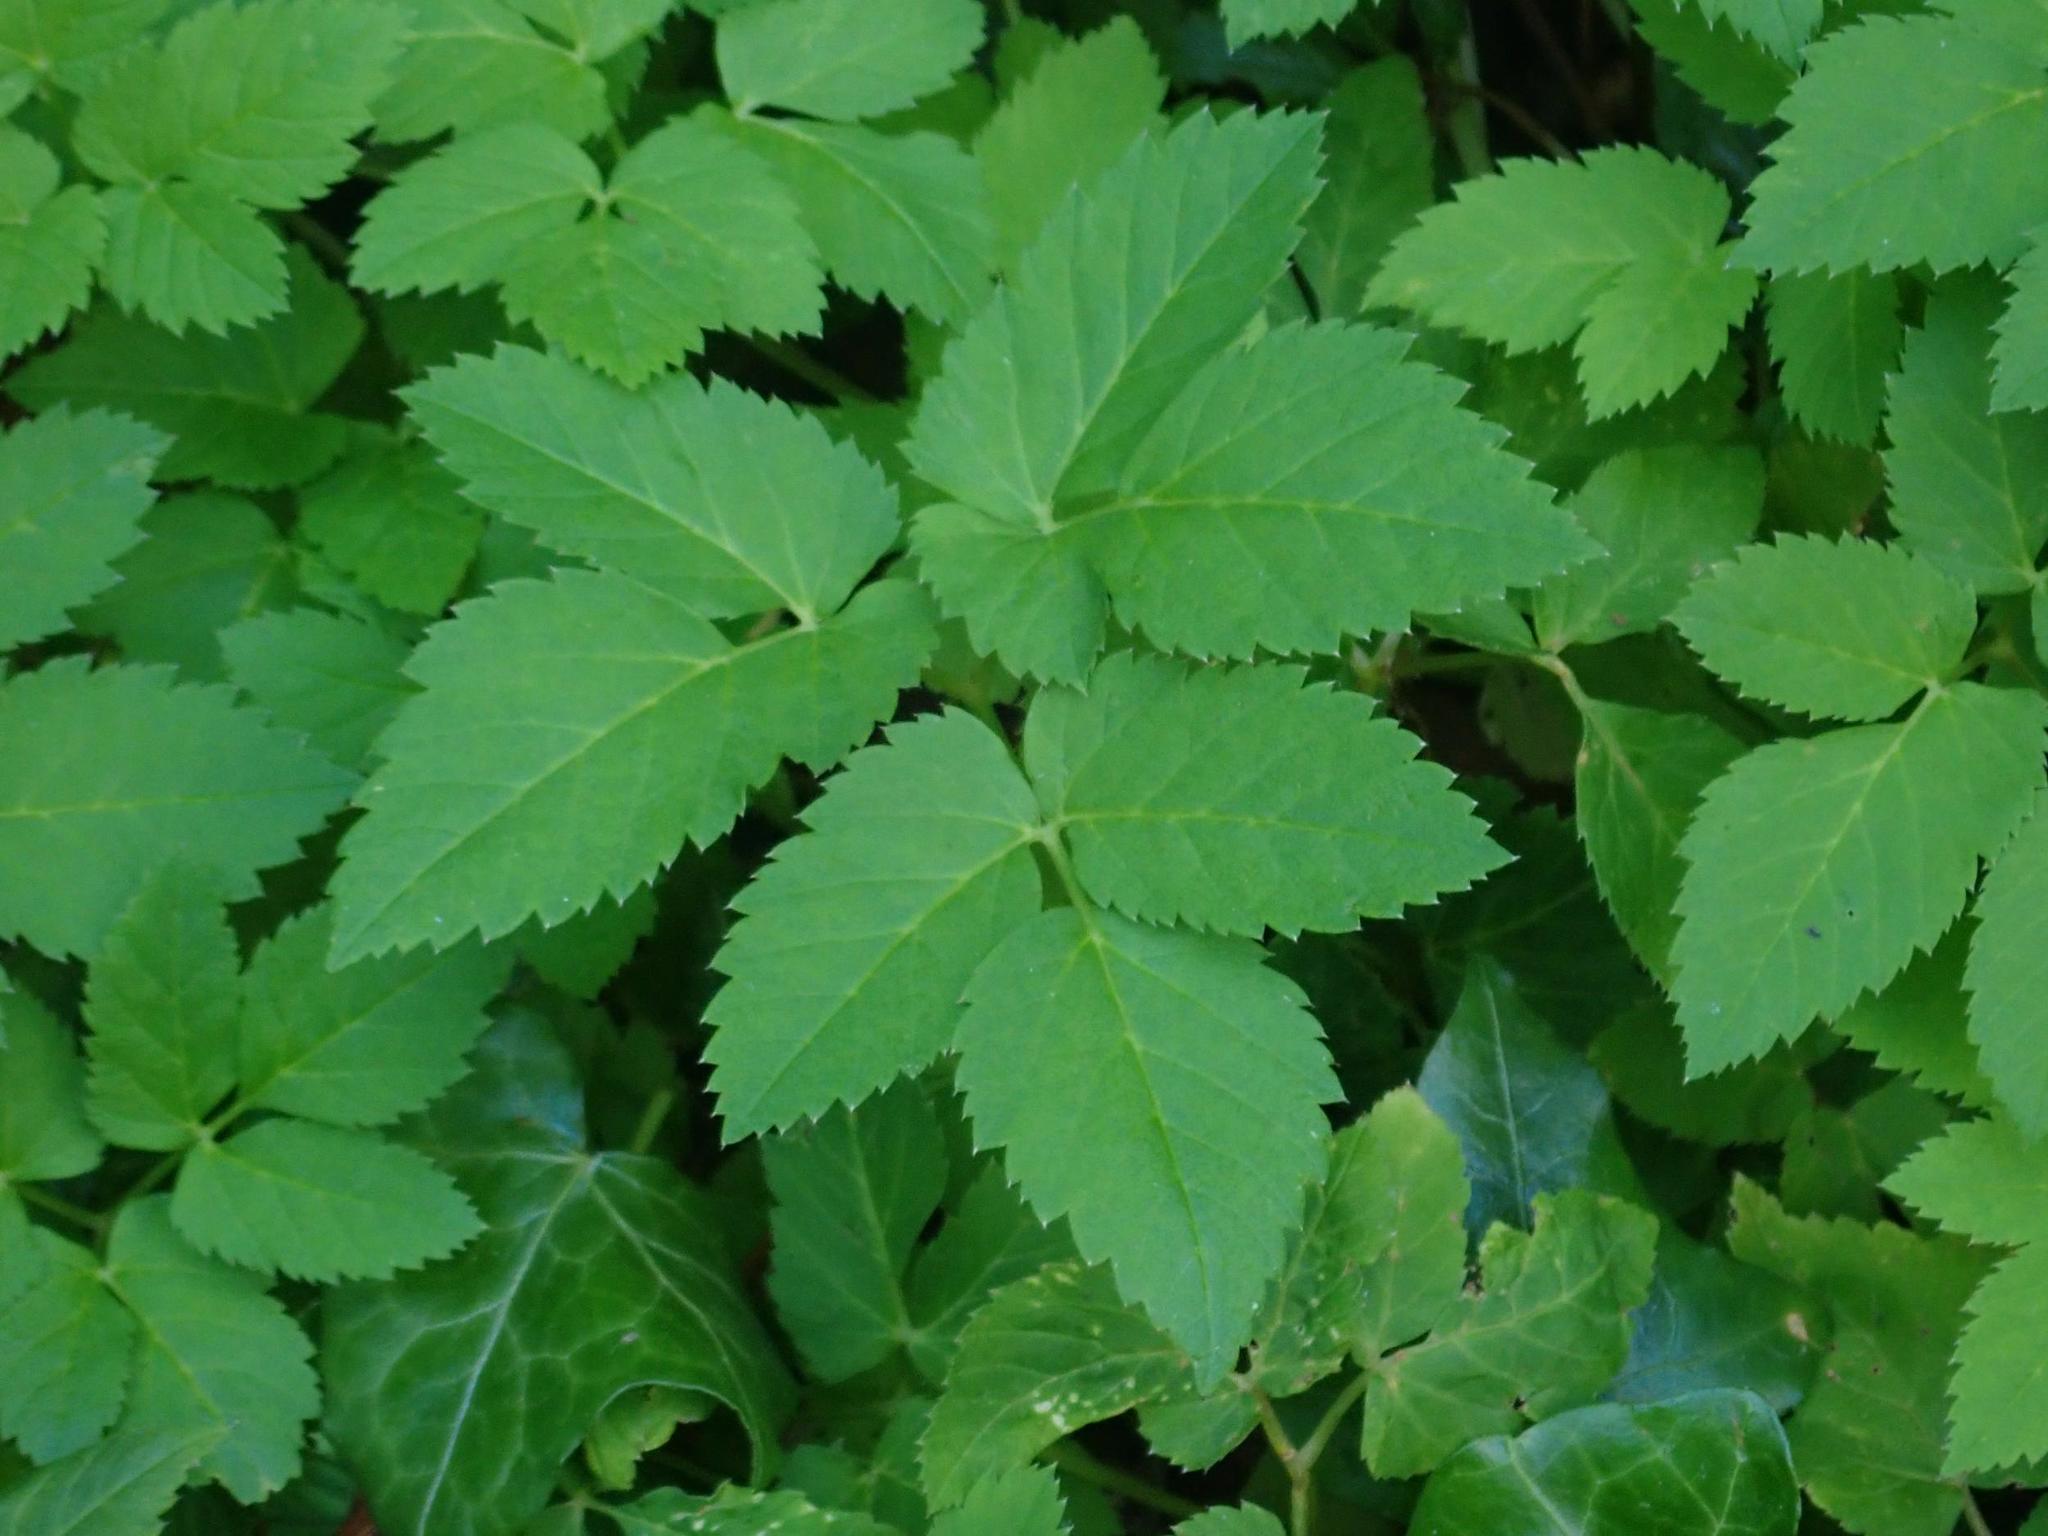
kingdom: Plantae
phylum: Tracheophyta
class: Magnoliopsida
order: Apiales
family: Apiaceae
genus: Aegopodium
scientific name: Aegopodium podagraria
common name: Ground-elder
